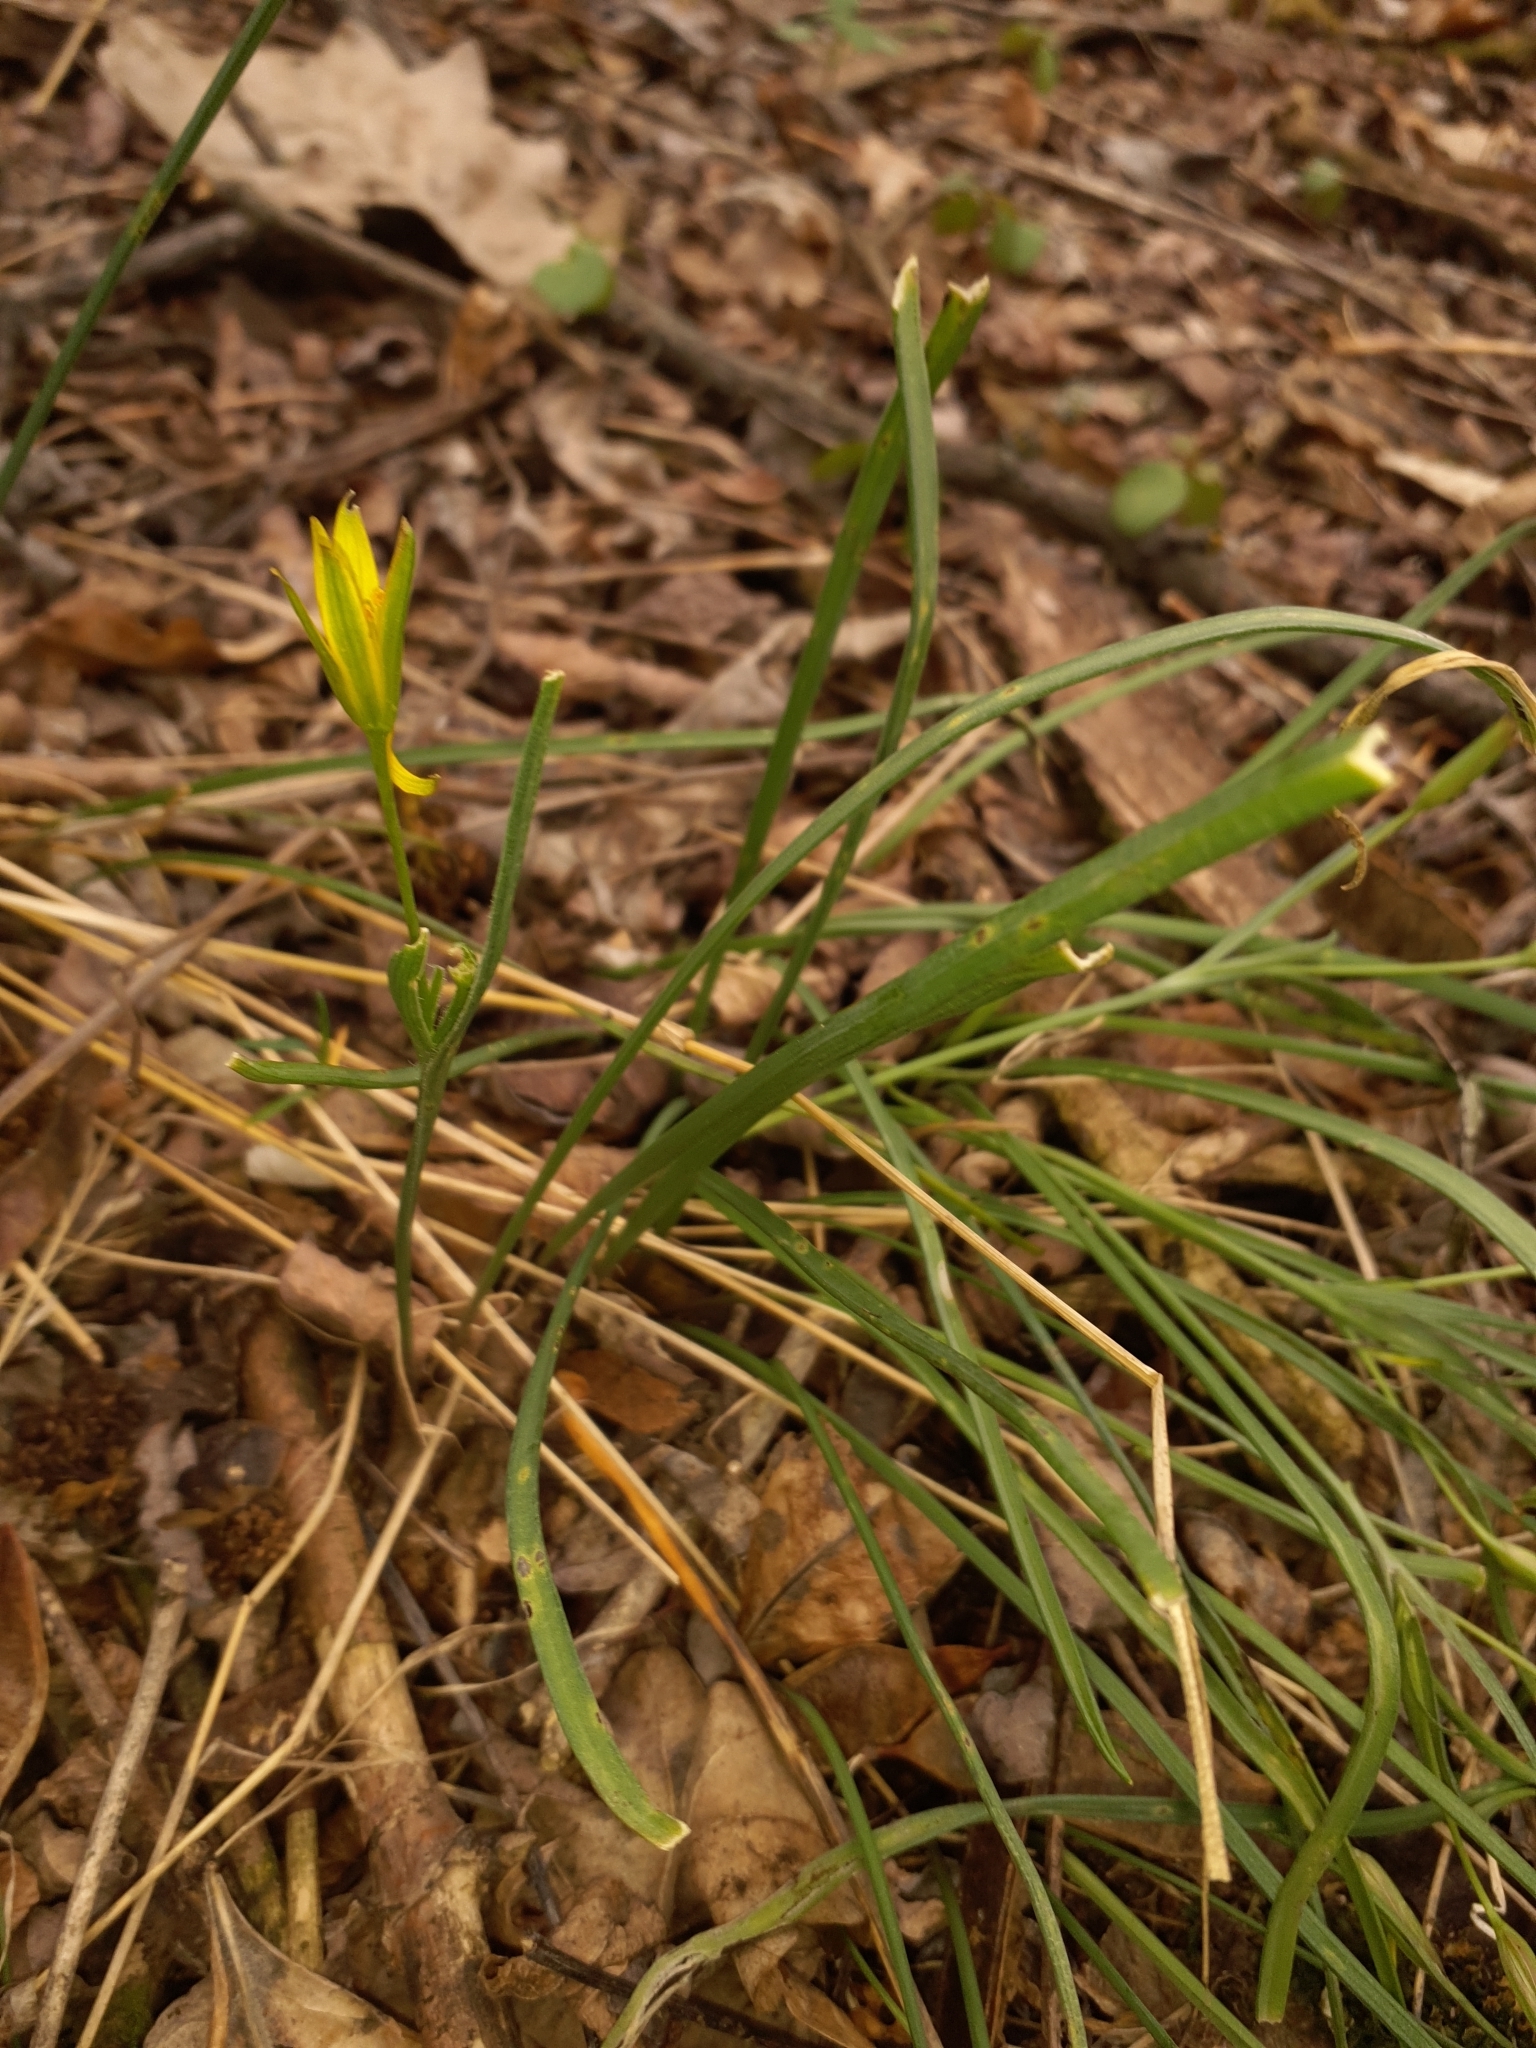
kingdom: Plantae
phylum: Tracheophyta
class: Liliopsida
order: Liliales
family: Liliaceae
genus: Gagea
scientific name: Gagea pratensis
